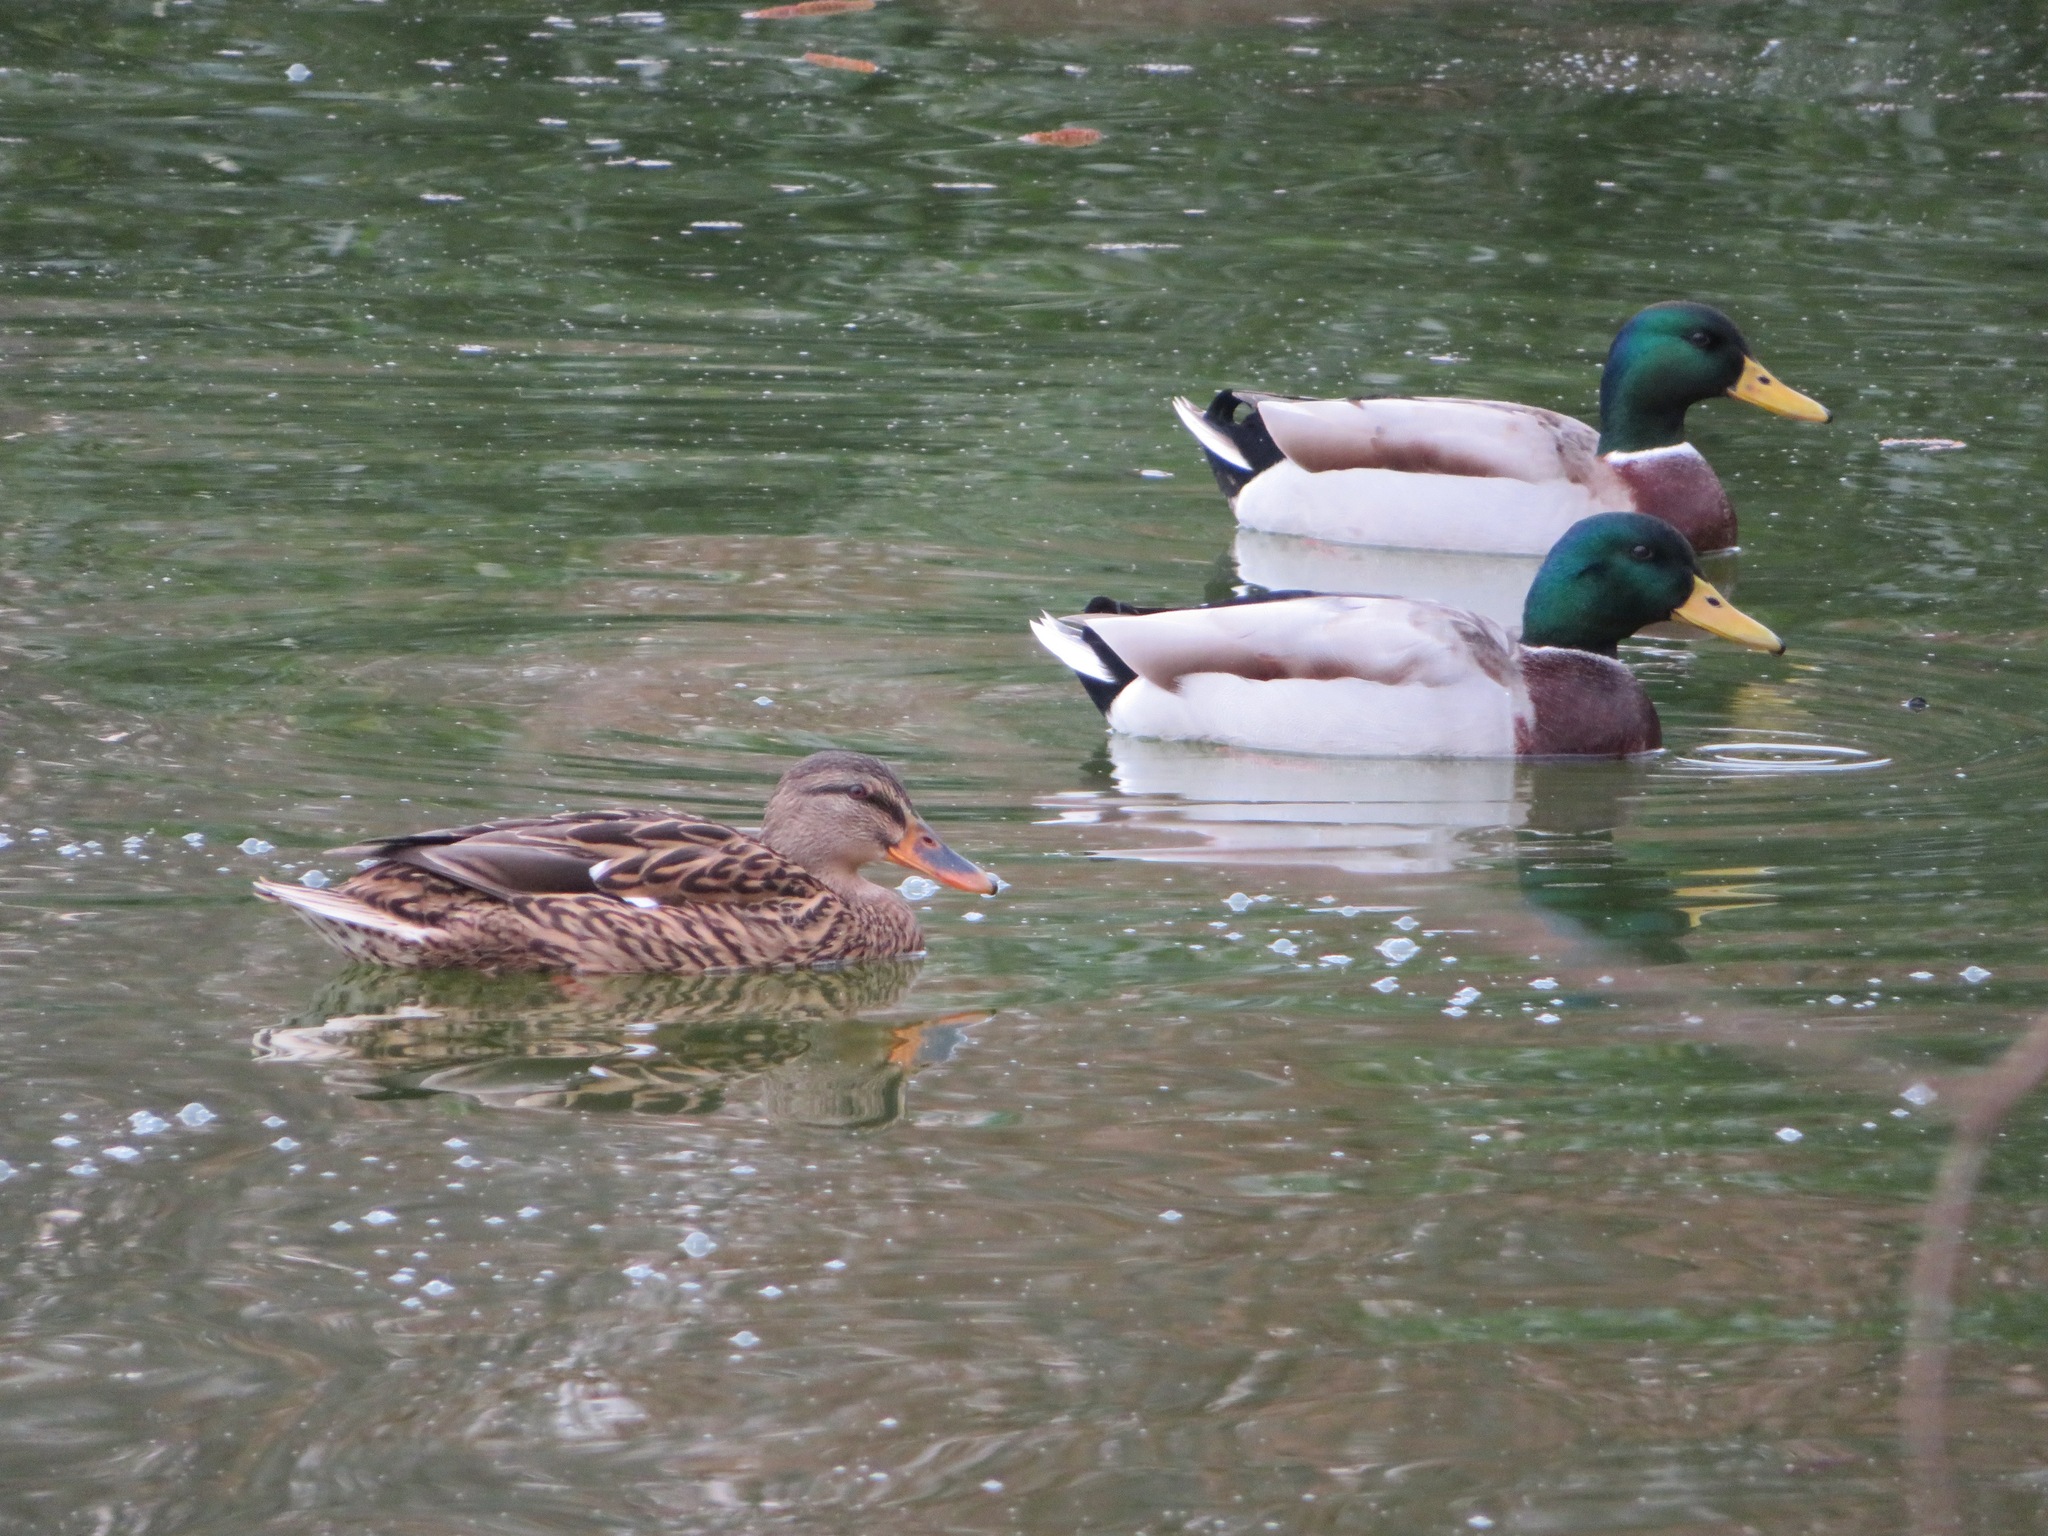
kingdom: Animalia
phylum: Chordata
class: Aves
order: Anseriformes
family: Anatidae
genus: Anas
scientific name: Anas platyrhynchos
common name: Mallard
